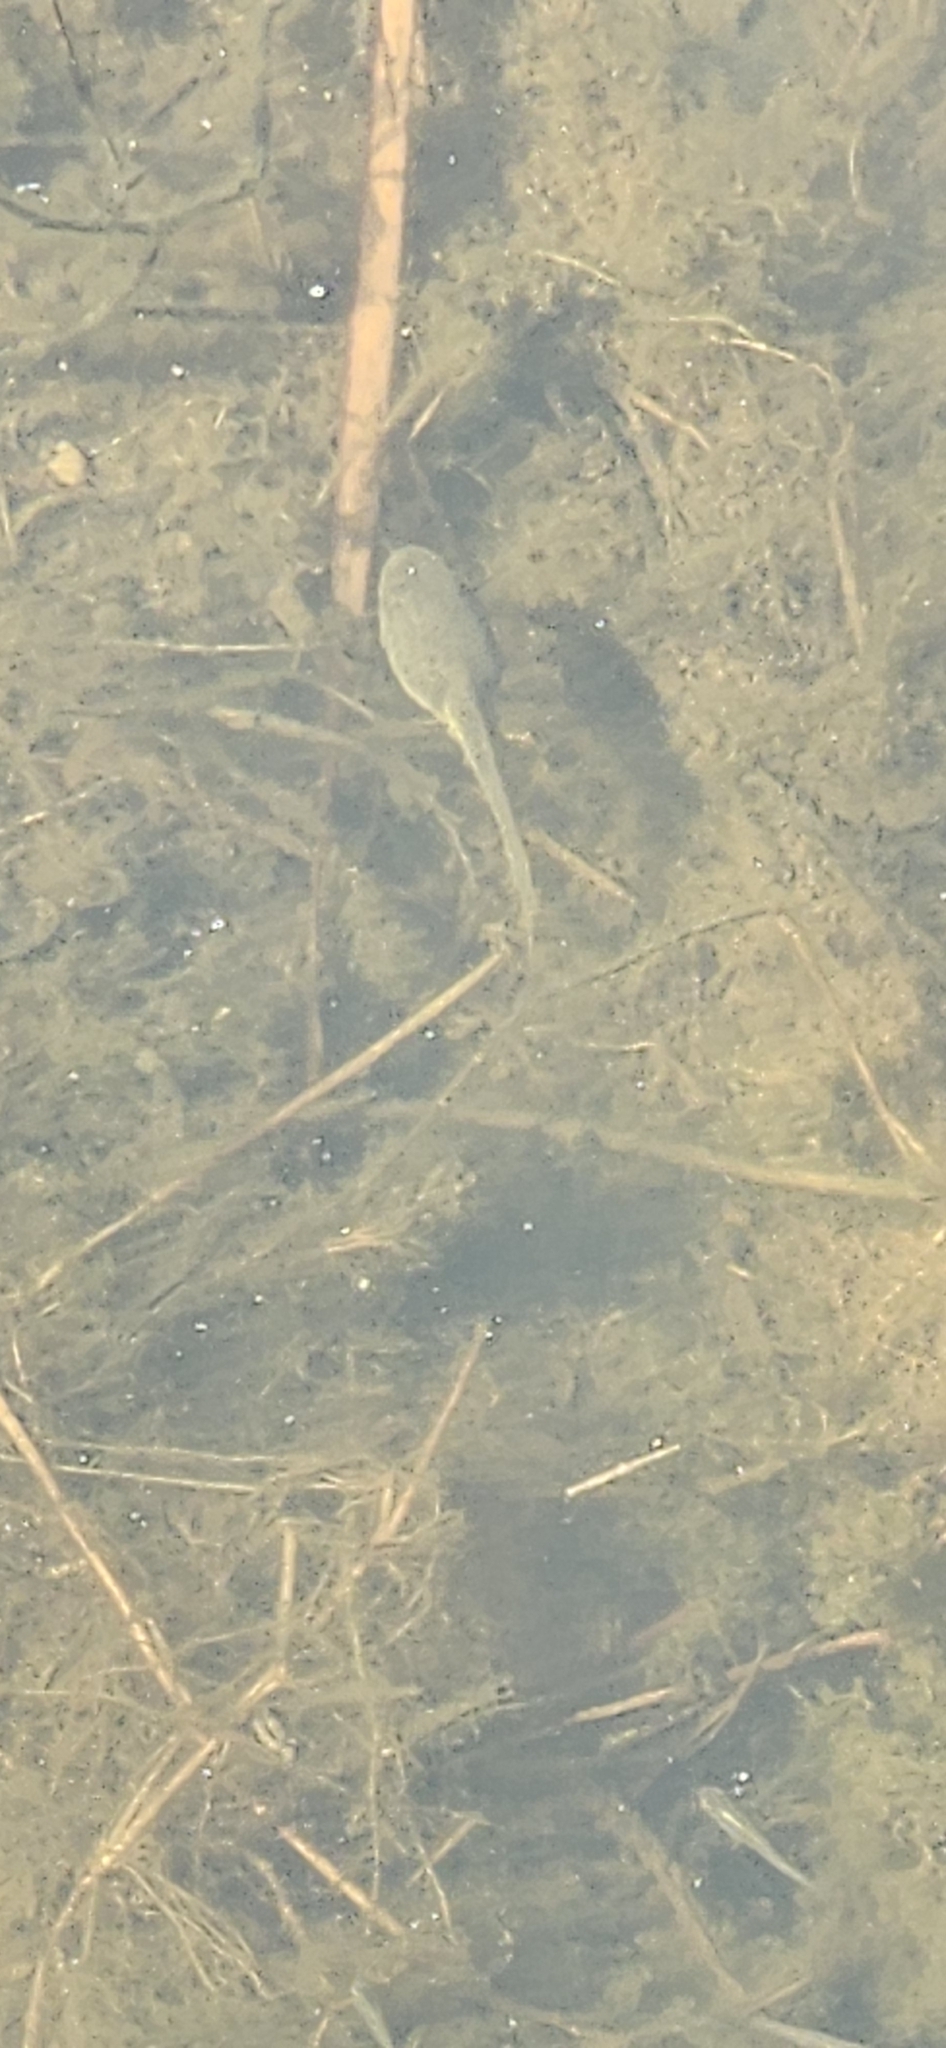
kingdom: Animalia
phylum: Chordata
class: Amphibia
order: Anura
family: Ranidae
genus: Lithobates
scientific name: Lithobates catesbeianus
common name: American bullfrog
